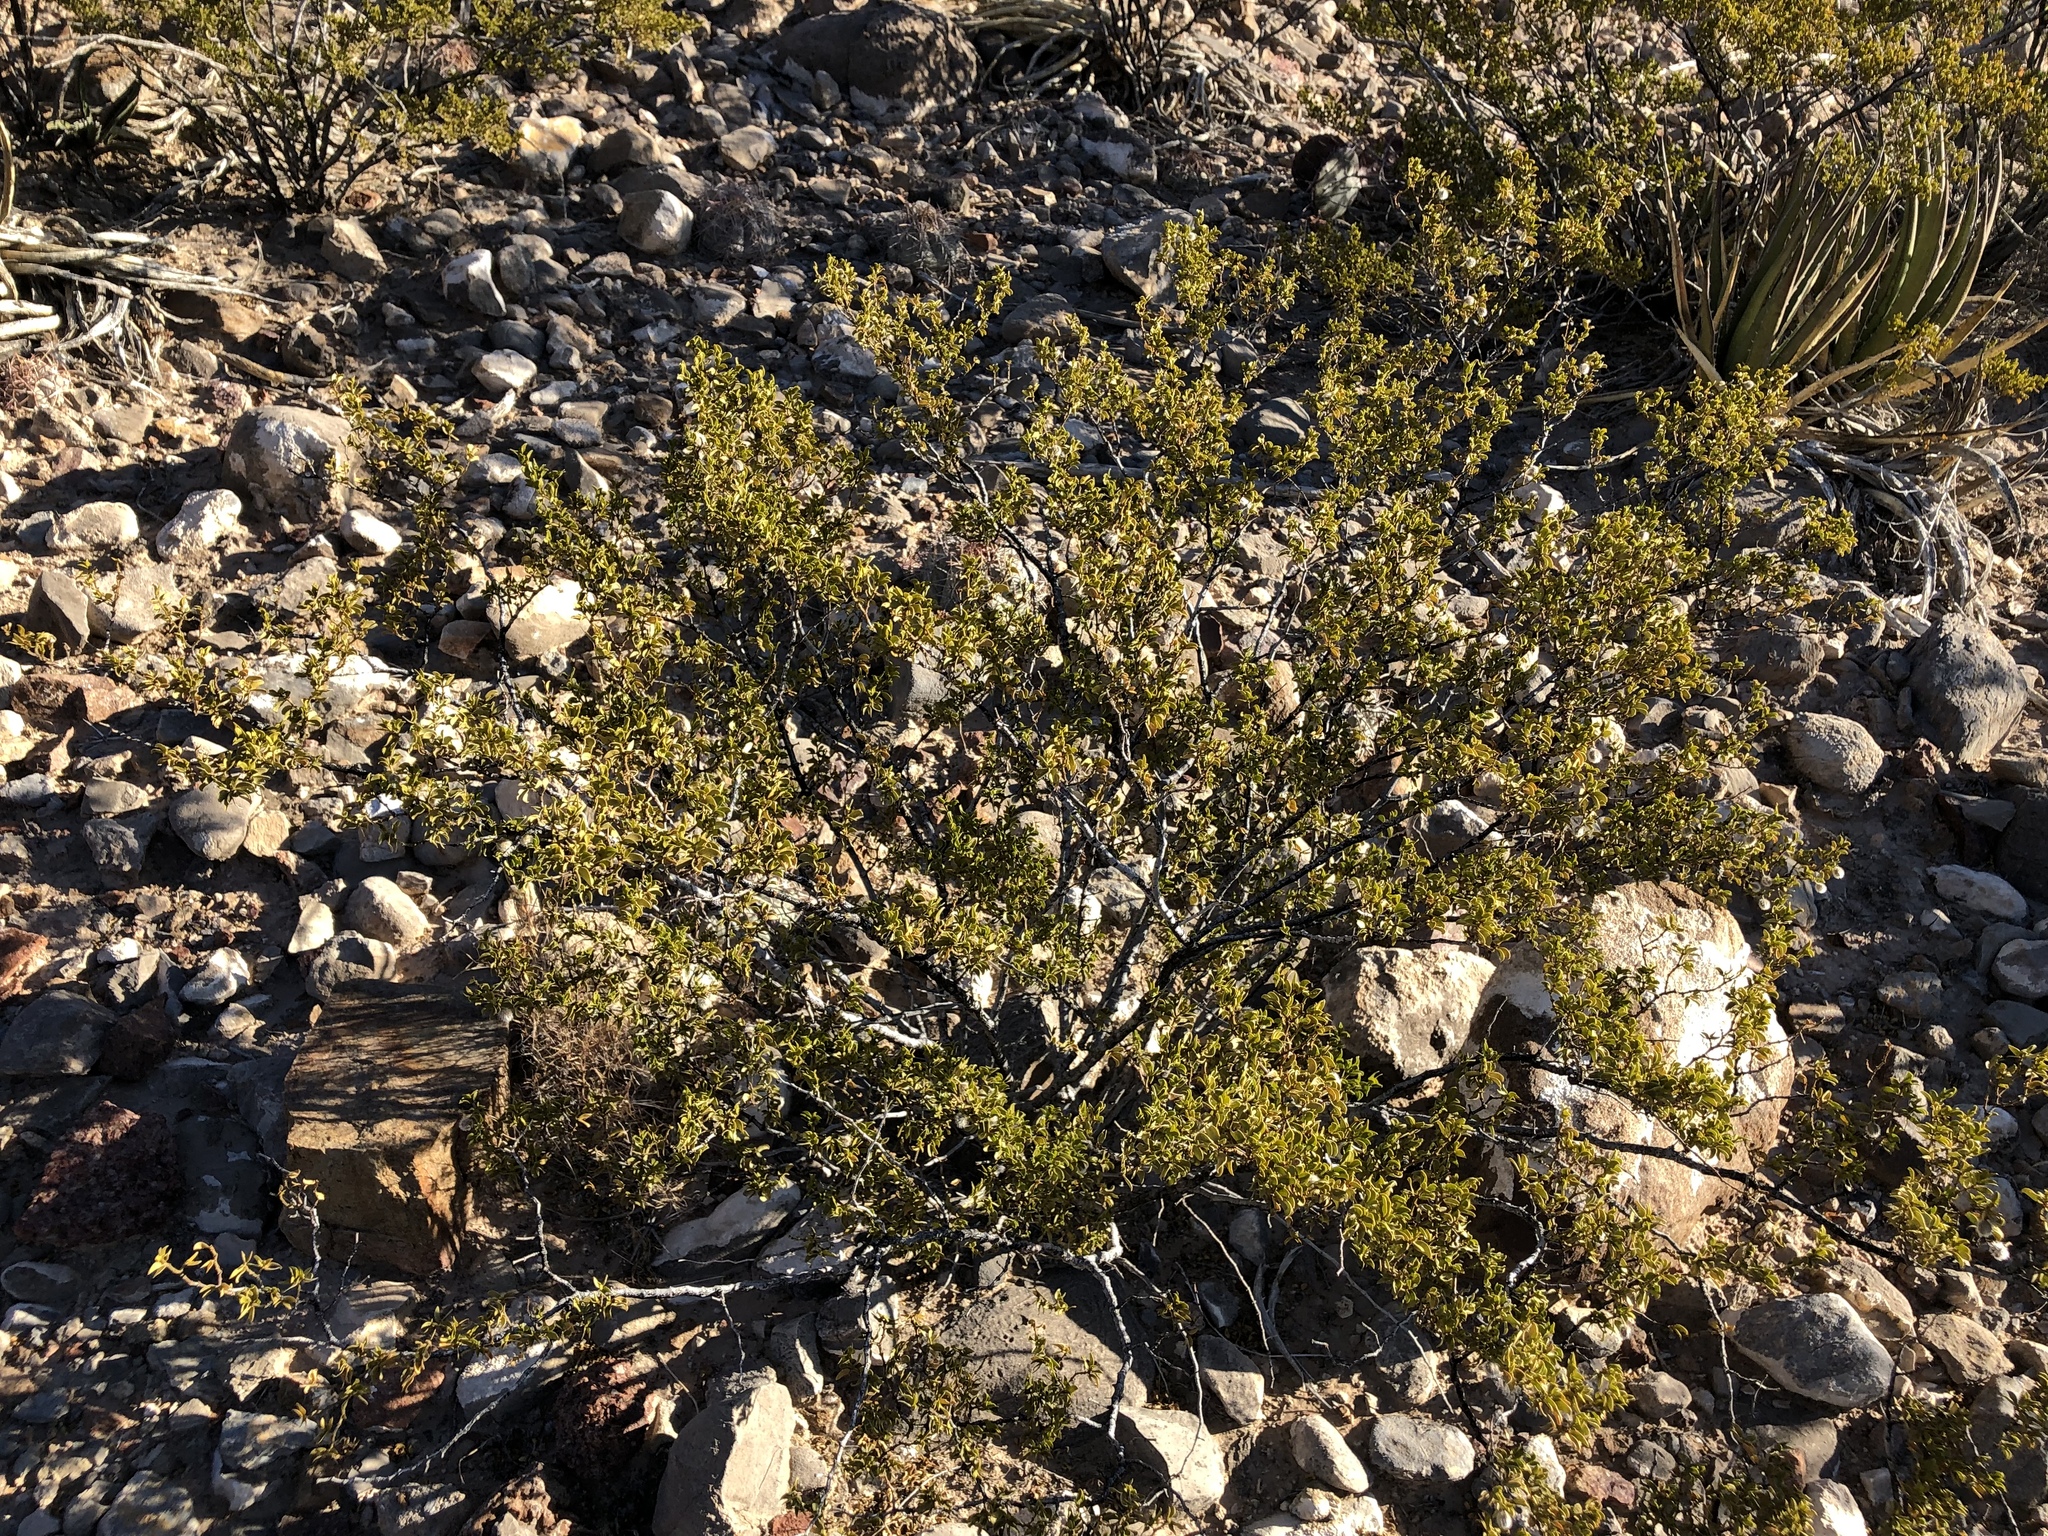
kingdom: Plantae
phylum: Tracheophyta
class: Magnoliopsida
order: Zygophyllales
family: Zygophyllaceae
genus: Larrea
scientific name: Larrea tridentata
